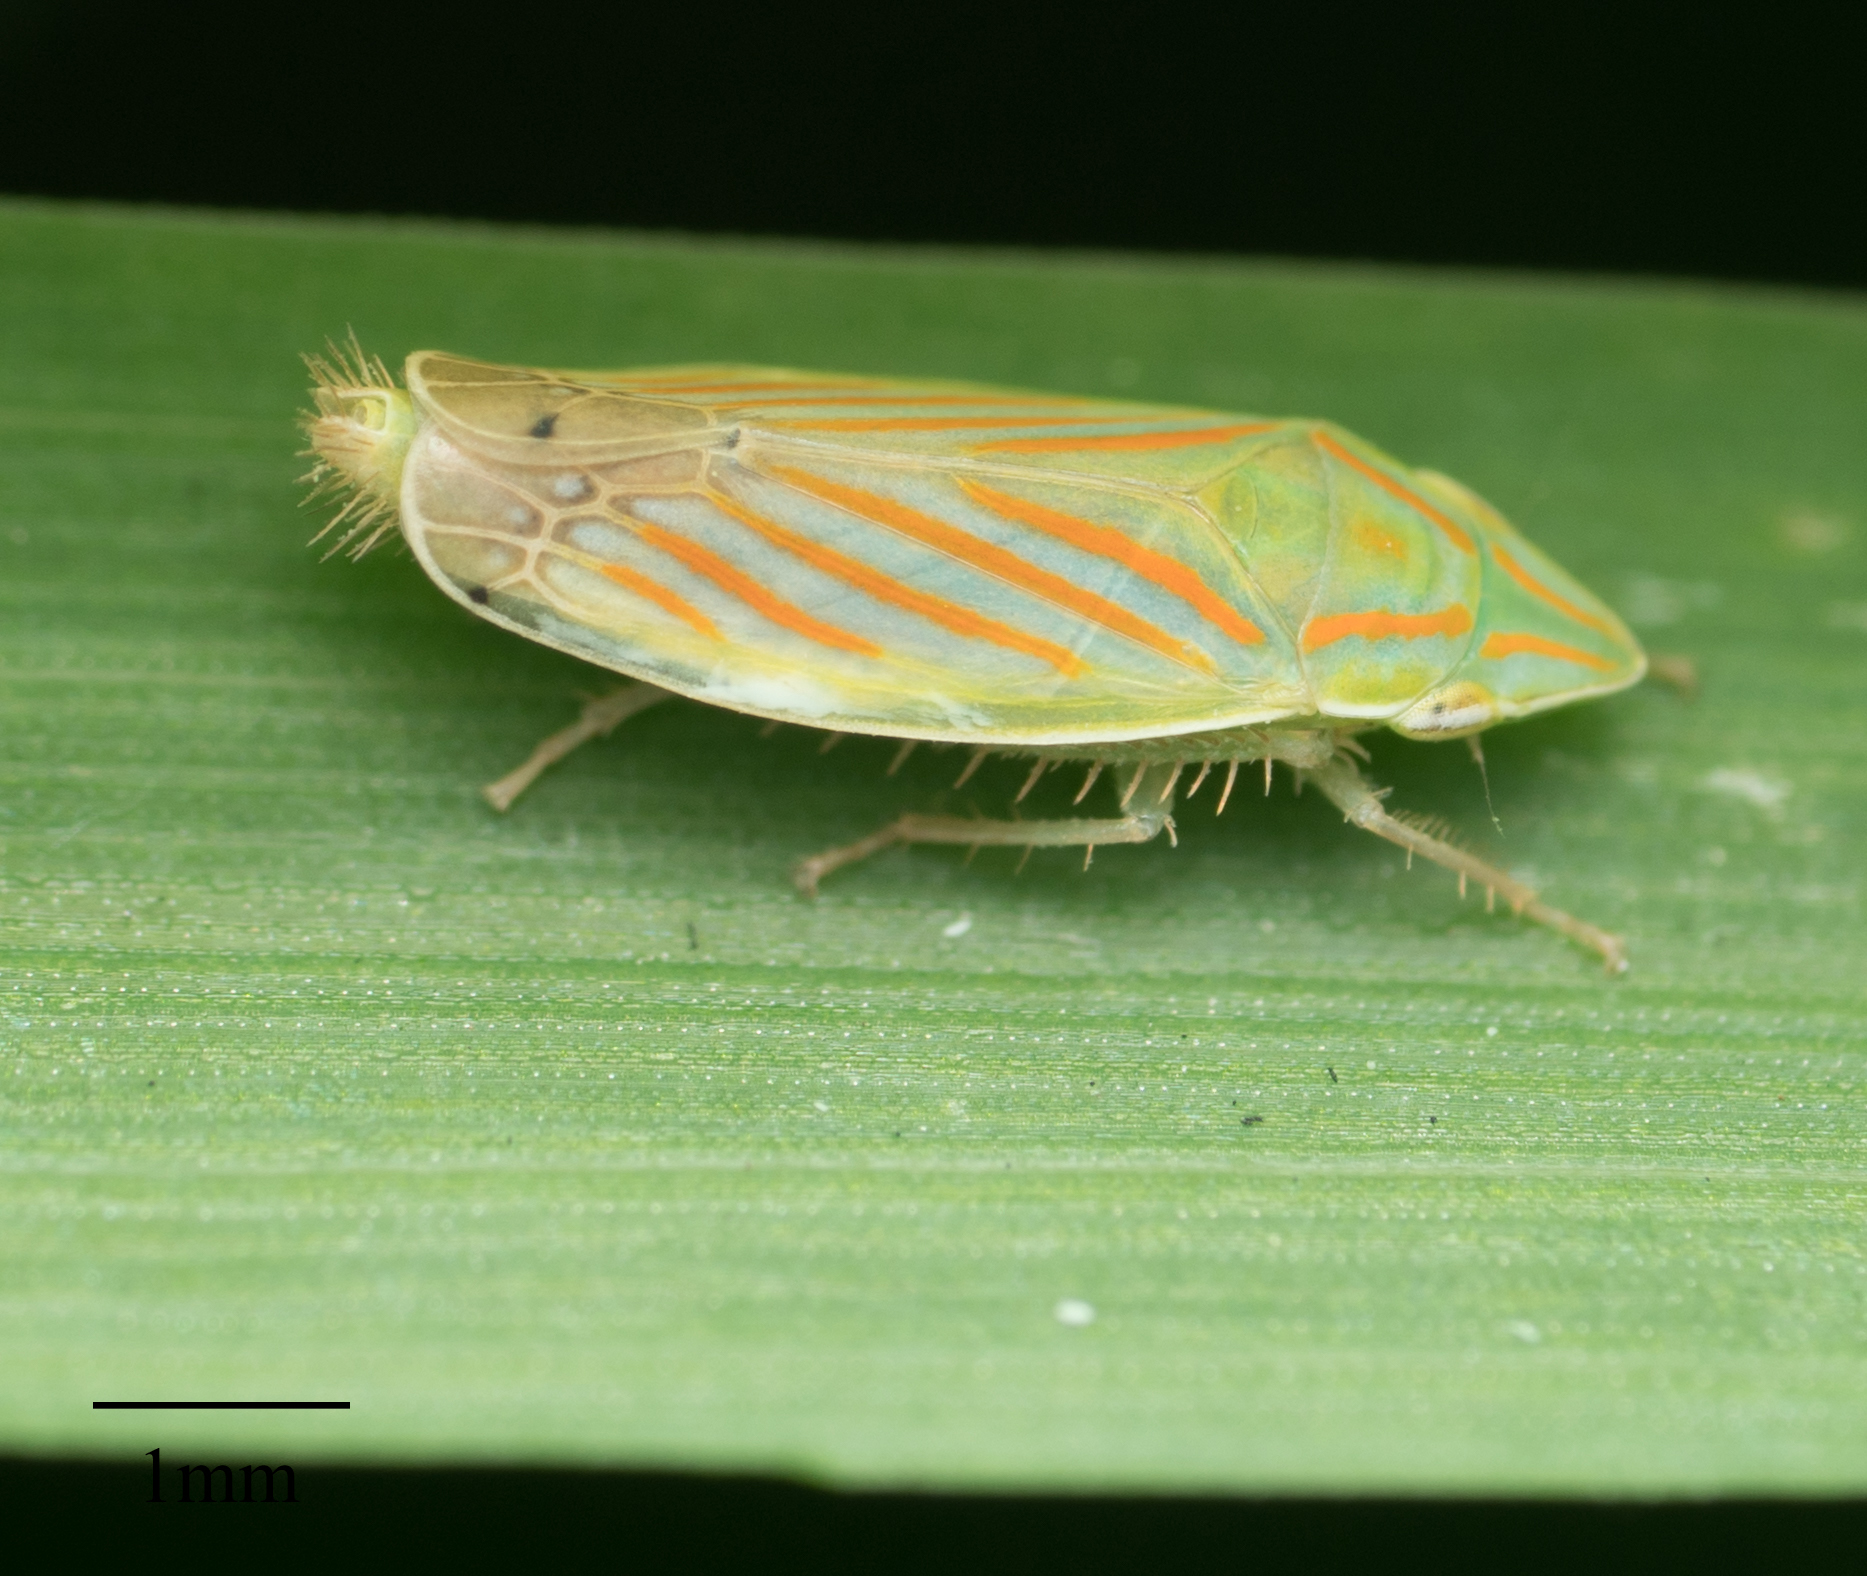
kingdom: Animalia
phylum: Arthropoda
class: Insecta
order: Hemiptera
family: Cicadellidae
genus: Spangbergiella
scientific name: Spangbergiella mexicana
